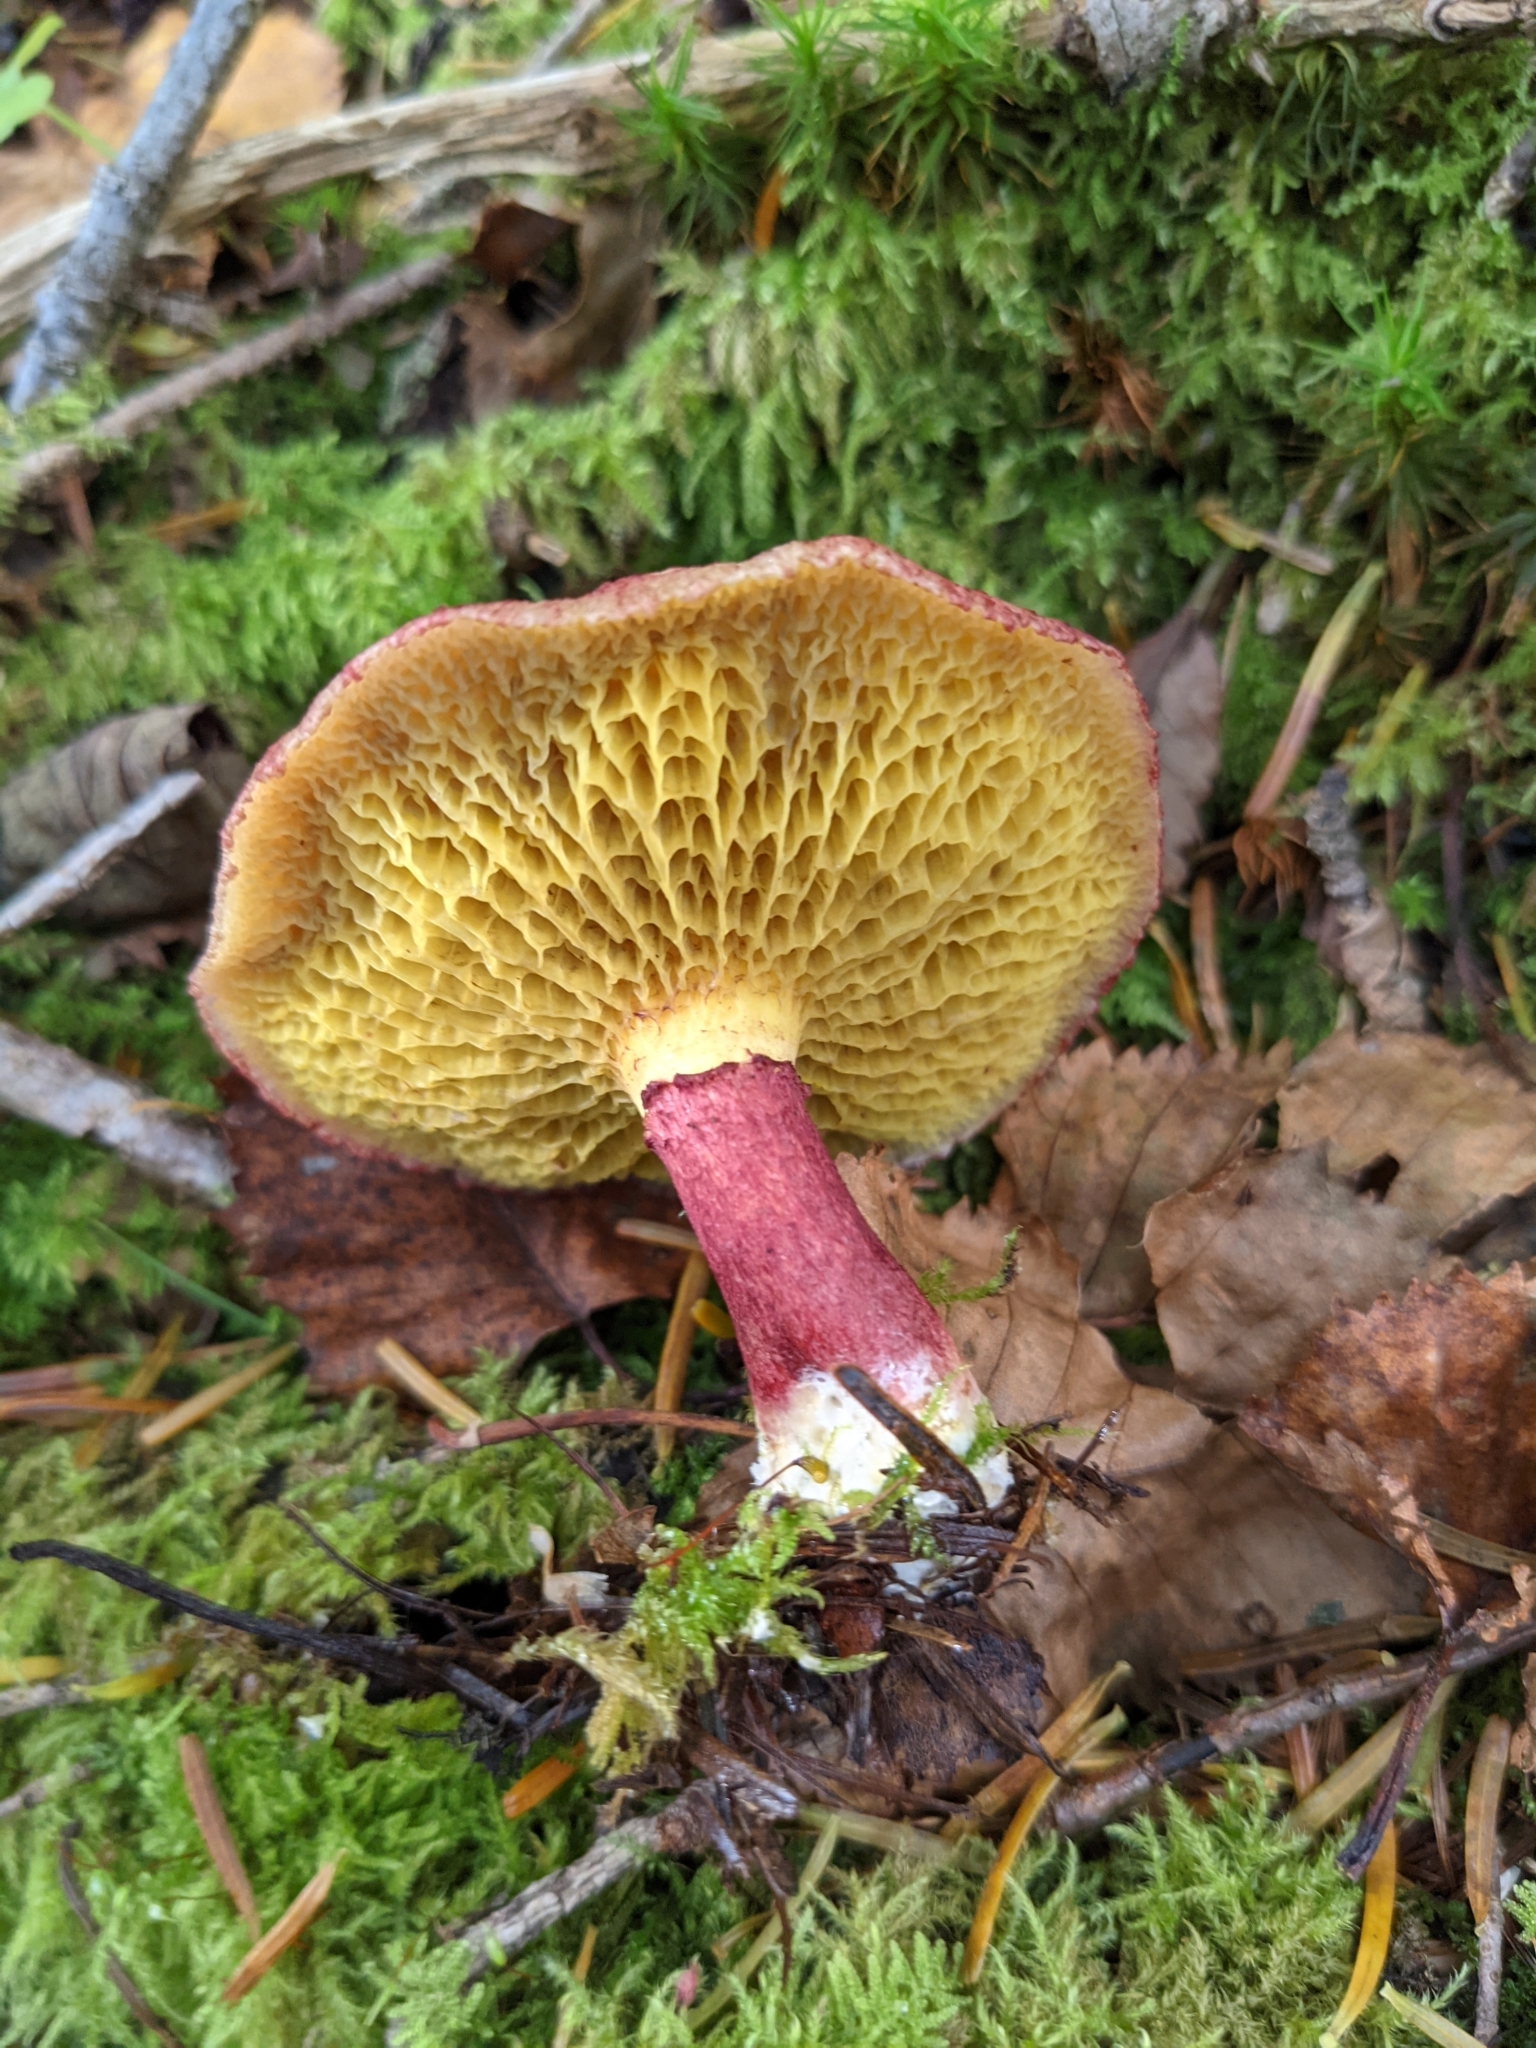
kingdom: Fungi
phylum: Basidiomycota
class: Agaricomycetes
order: Boletales
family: Suillaceae
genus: Boletinus
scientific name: Boletinus asiaticus
